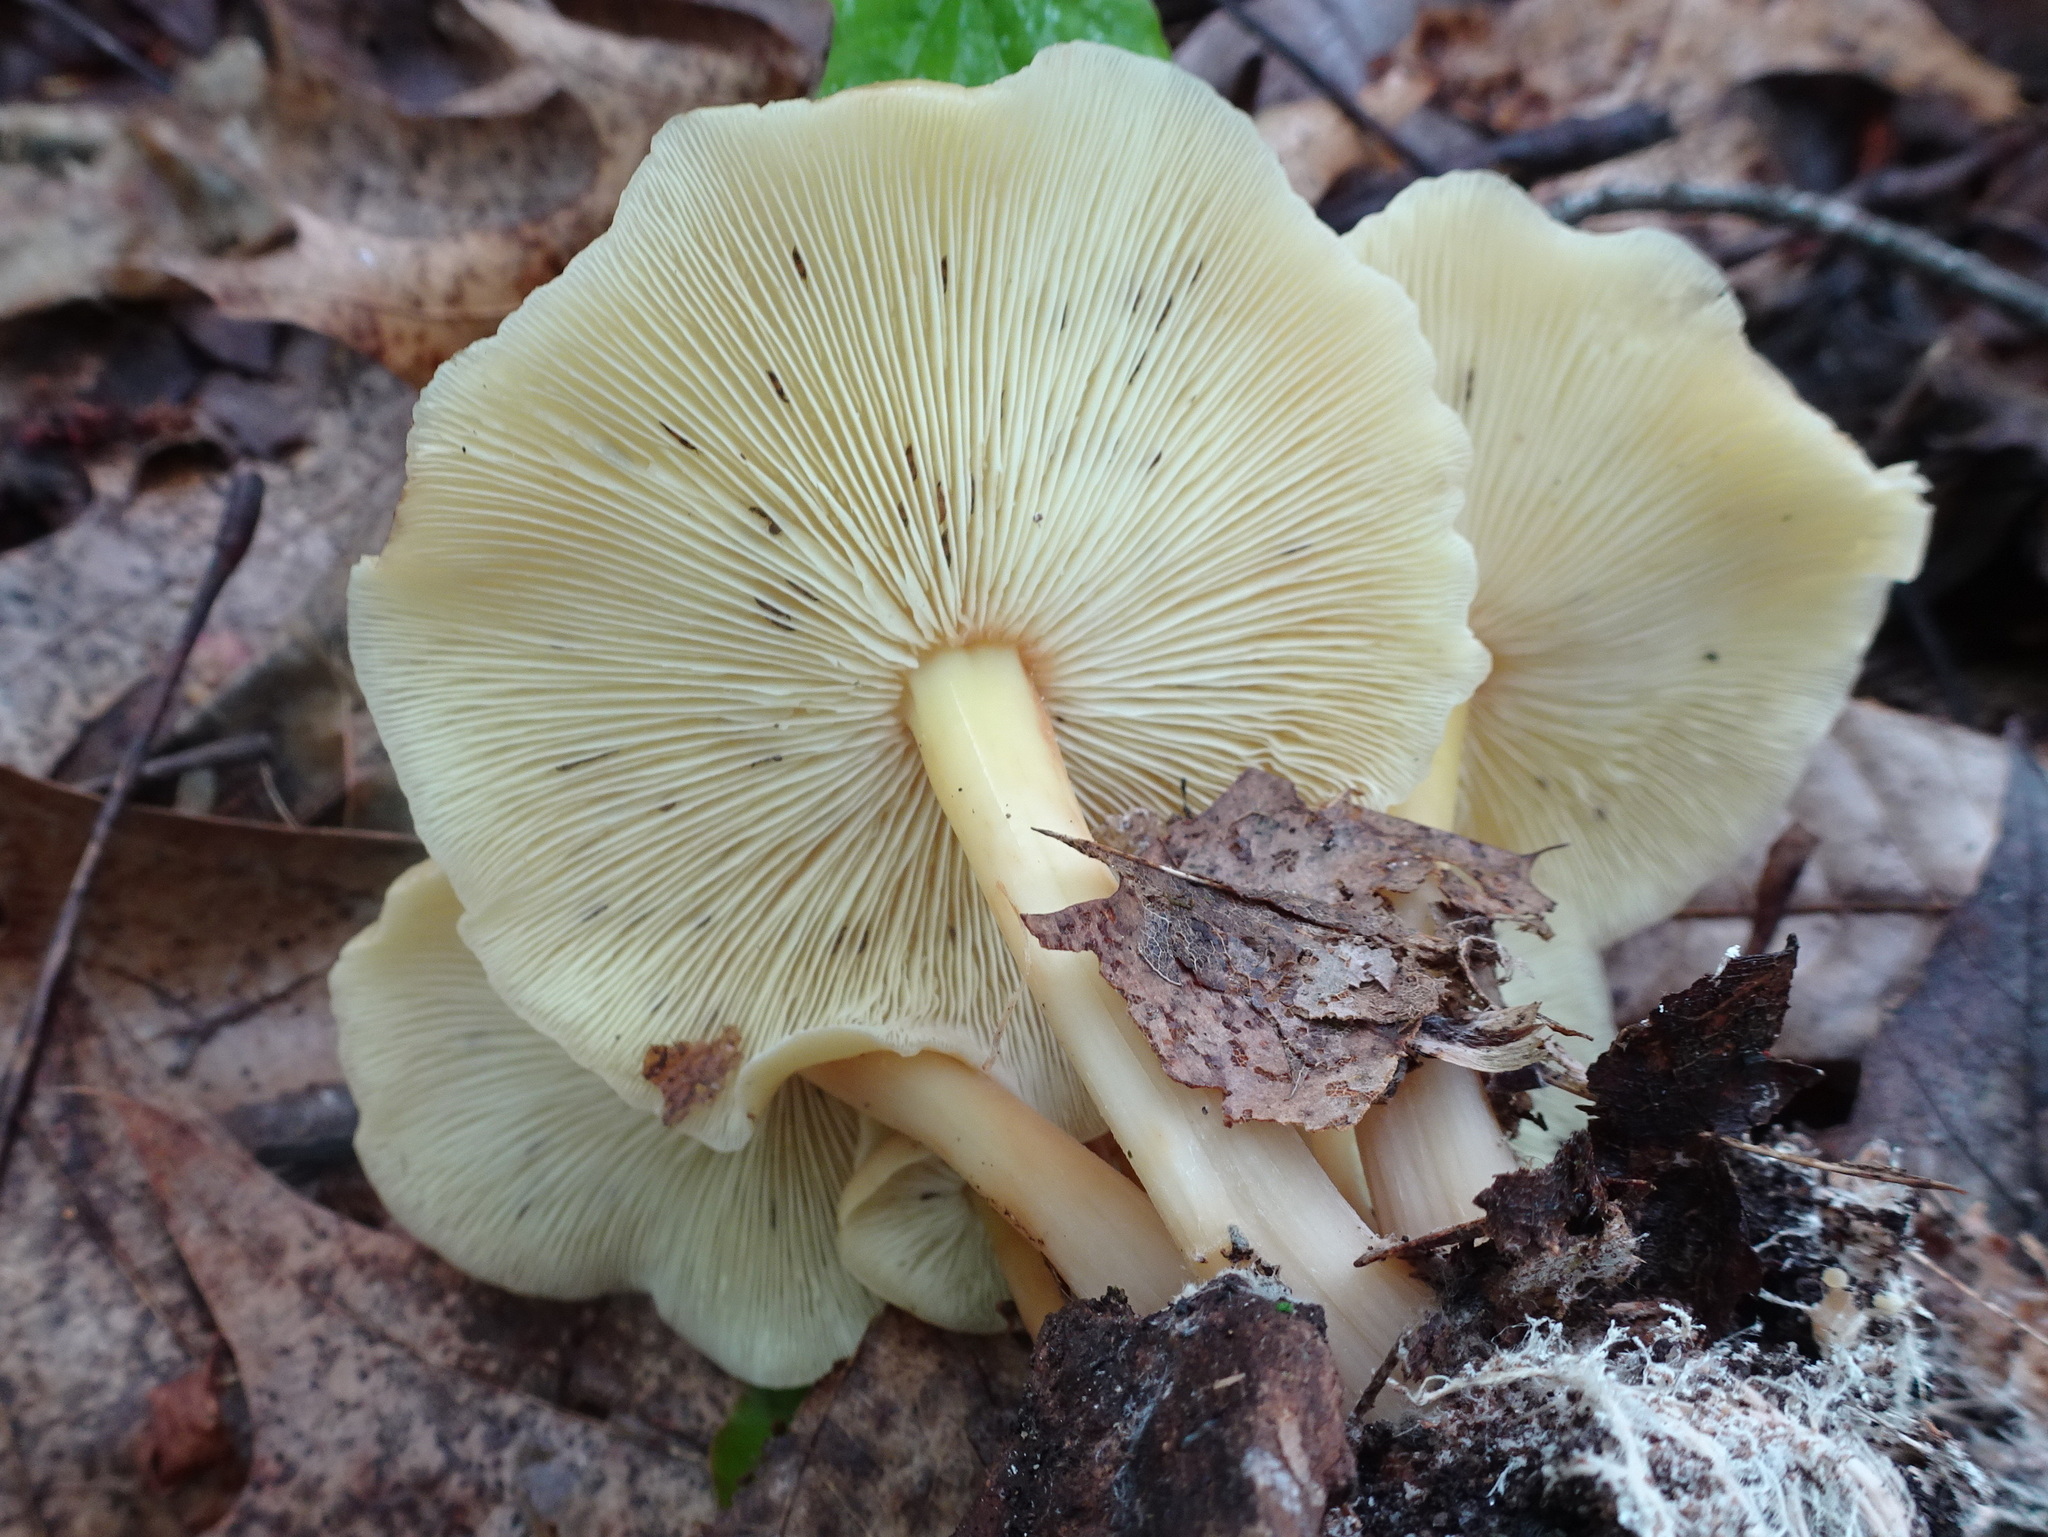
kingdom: Fungi
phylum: Basidiomycota
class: Agaricomycetes
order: Agaricales
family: Omphalotaceae
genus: Gymnopus
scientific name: Gymnopus earleae
